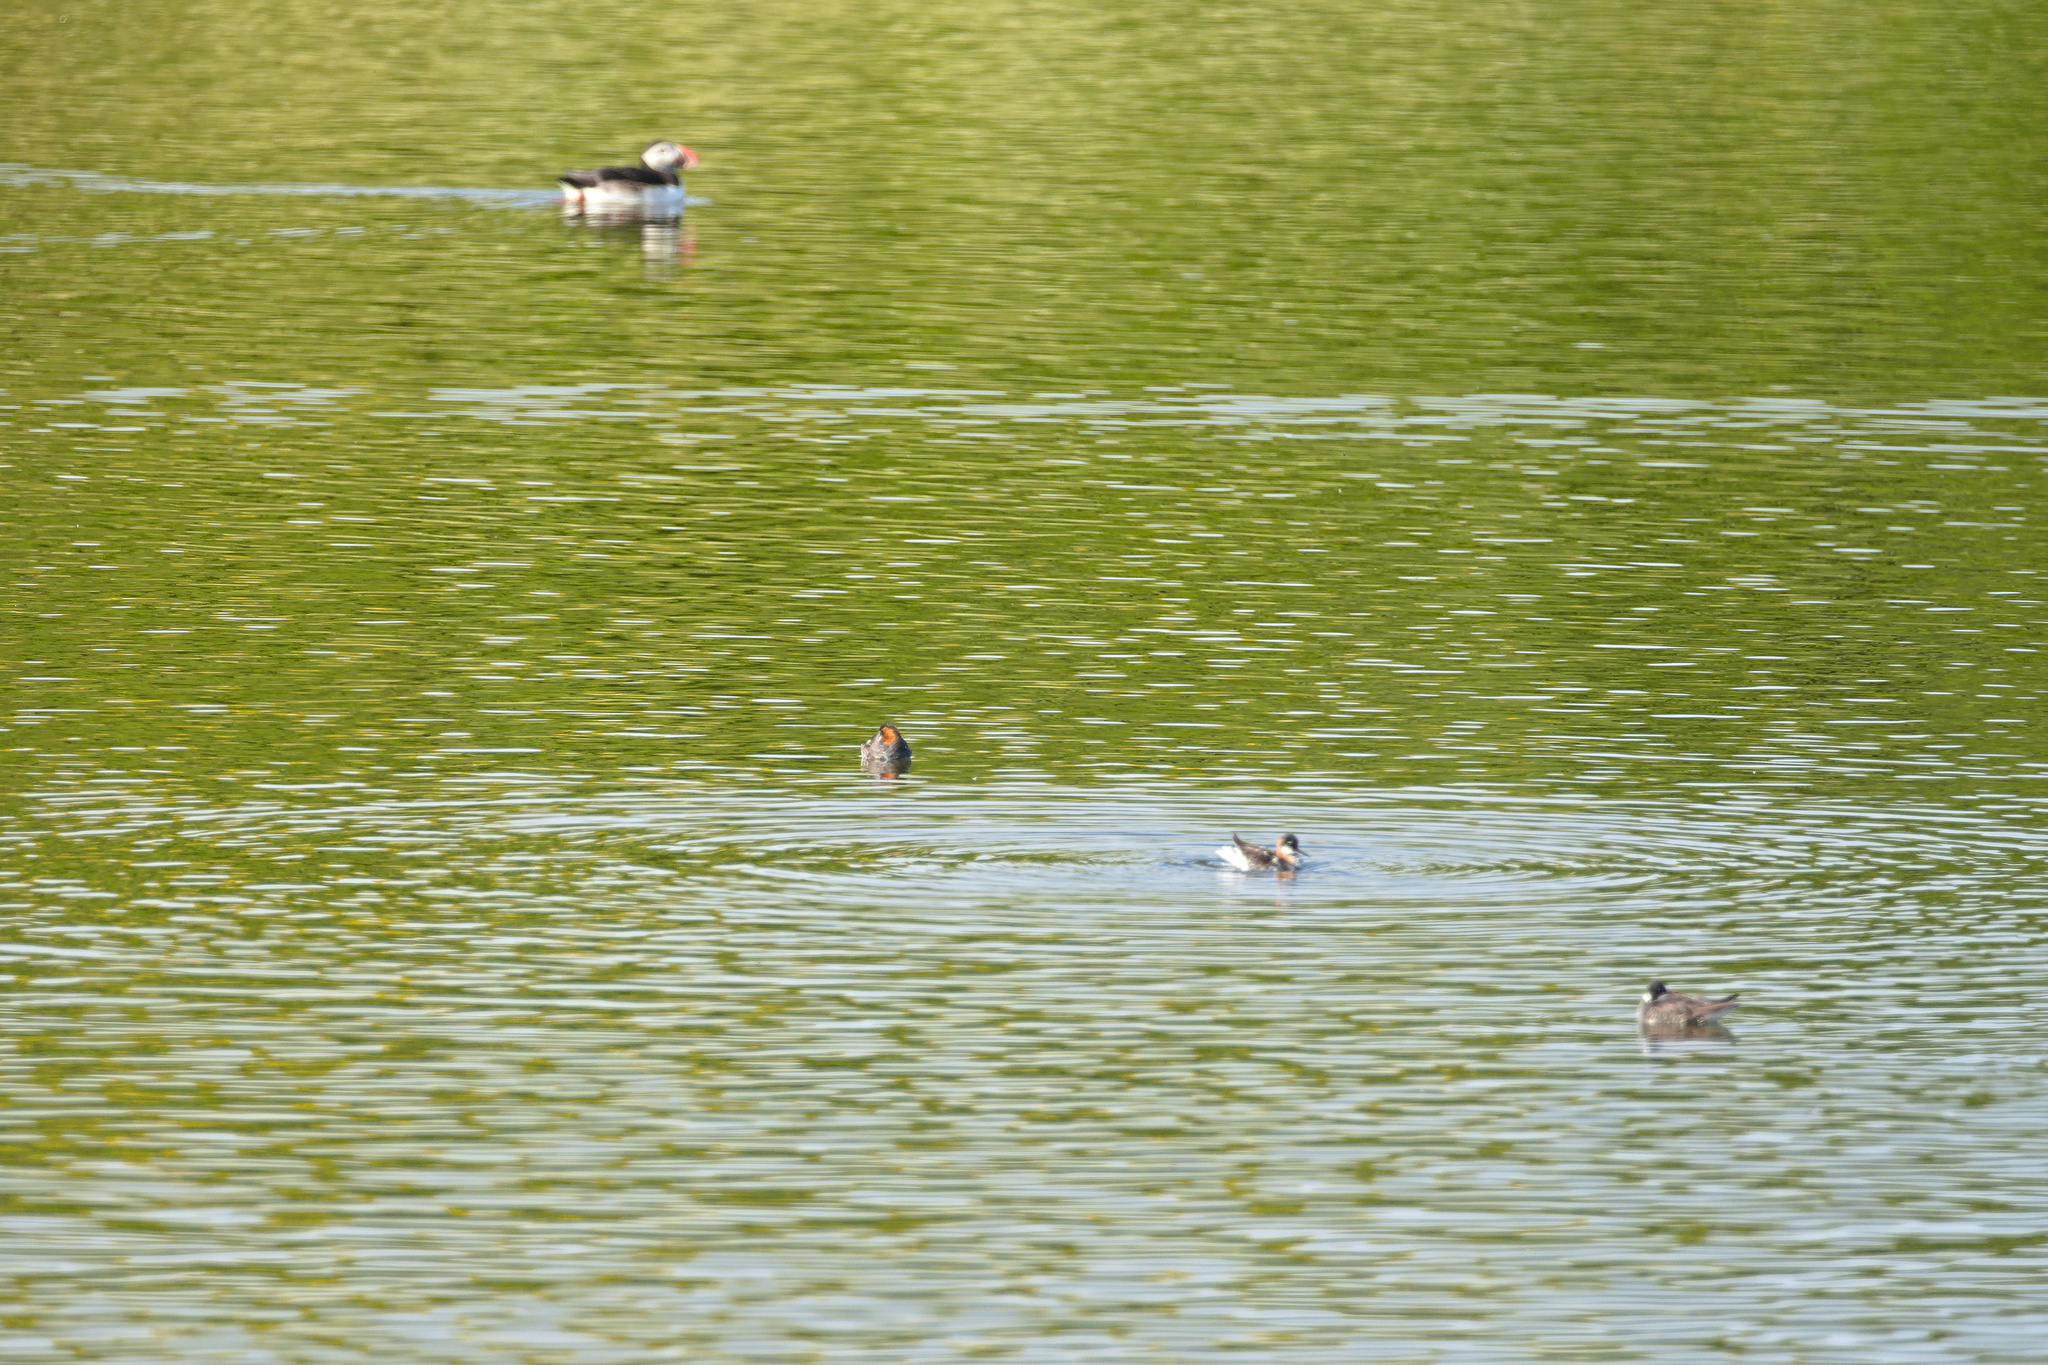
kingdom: Animalia
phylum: Chordata
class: Aves
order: Charadriiformes
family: Scolopacidae
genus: Phalaropus
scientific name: Phalaropus lobatus
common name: Red-necked phalarope
